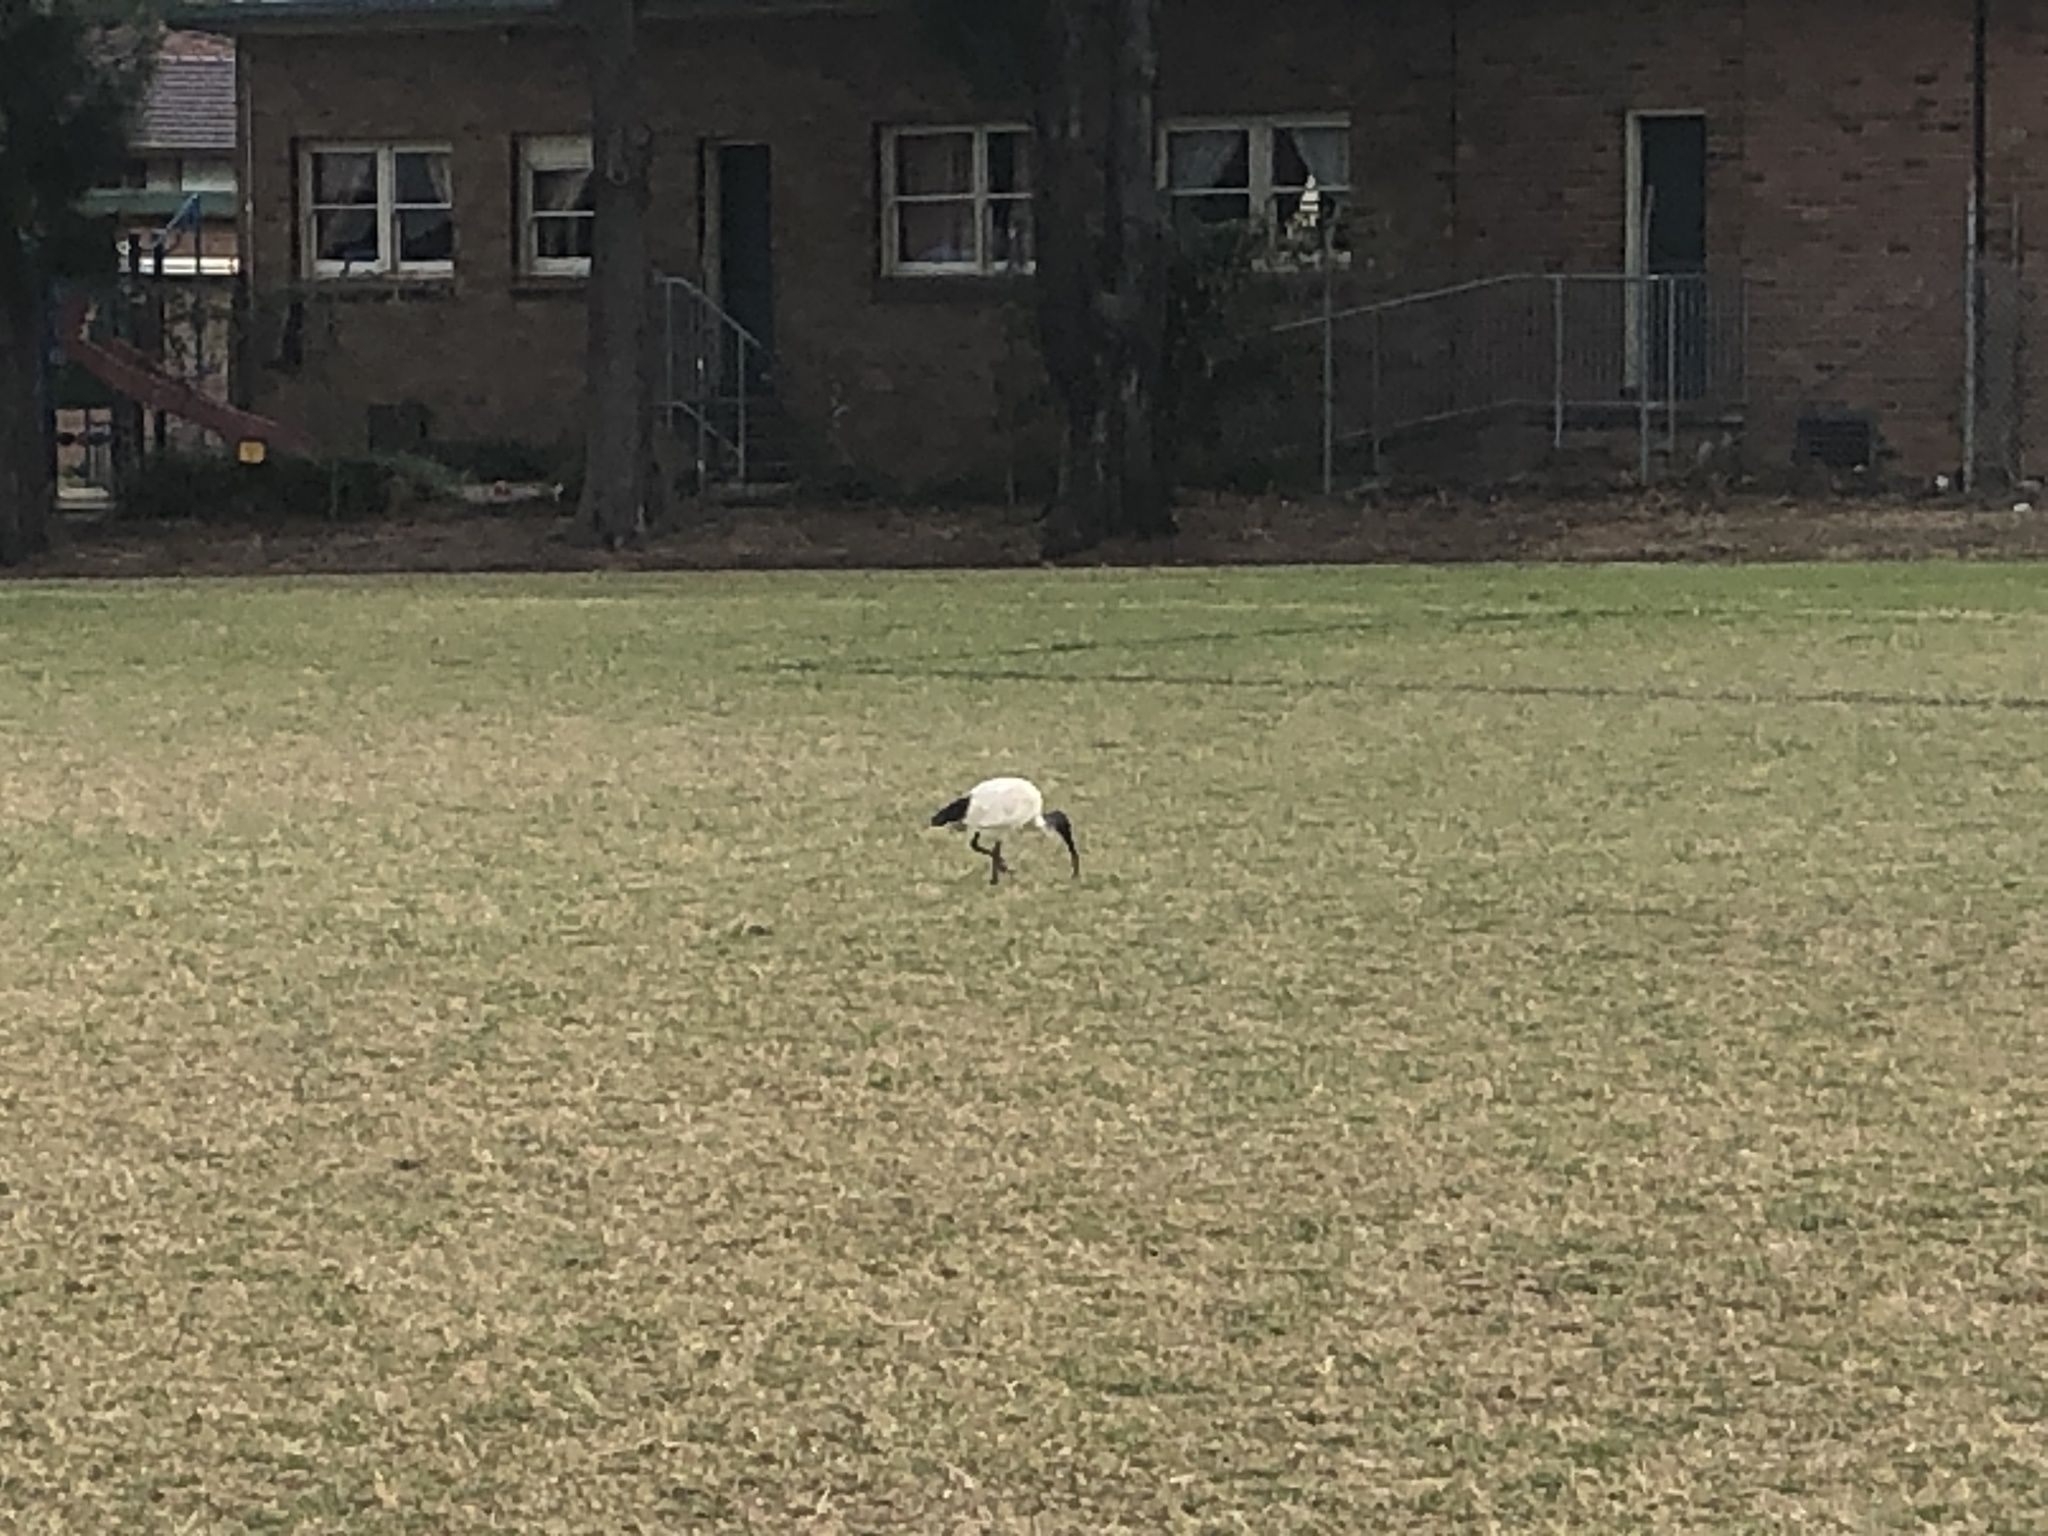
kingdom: Animalia
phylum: Chordata
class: Aves
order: Pelecaniformes
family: Threskiornithidae
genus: Threskiornis
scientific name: Threskiornis molucca
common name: Australian white ibis
